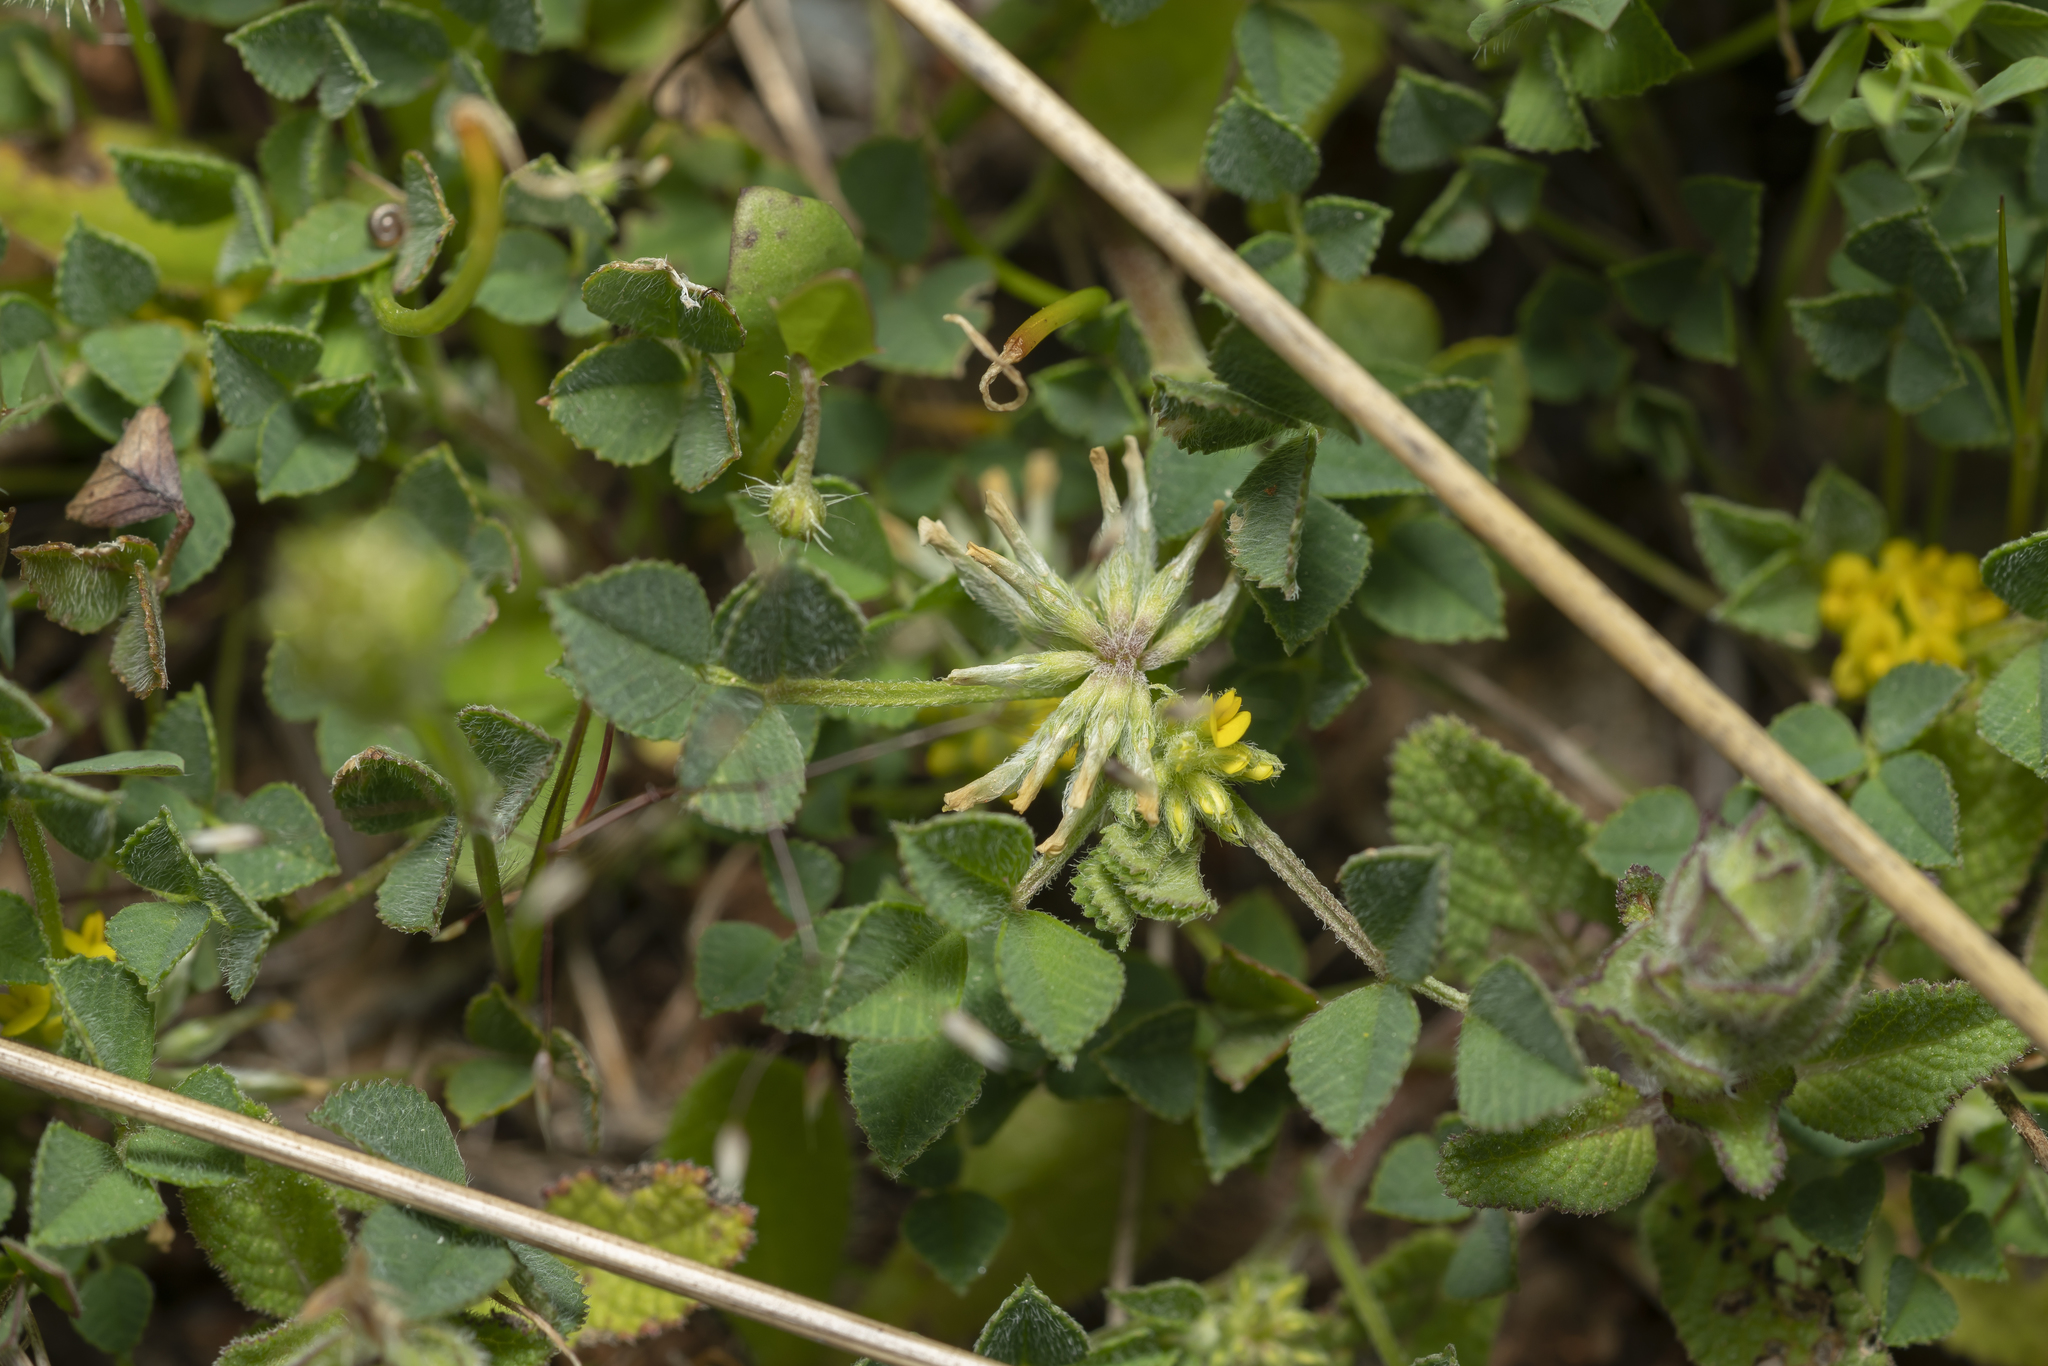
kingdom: Plantae
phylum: Tracheophyta
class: Magnoliopsida
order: Fabales
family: Fabaceae
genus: Medicago
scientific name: Medicago monspeliaca
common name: Hairy medick
